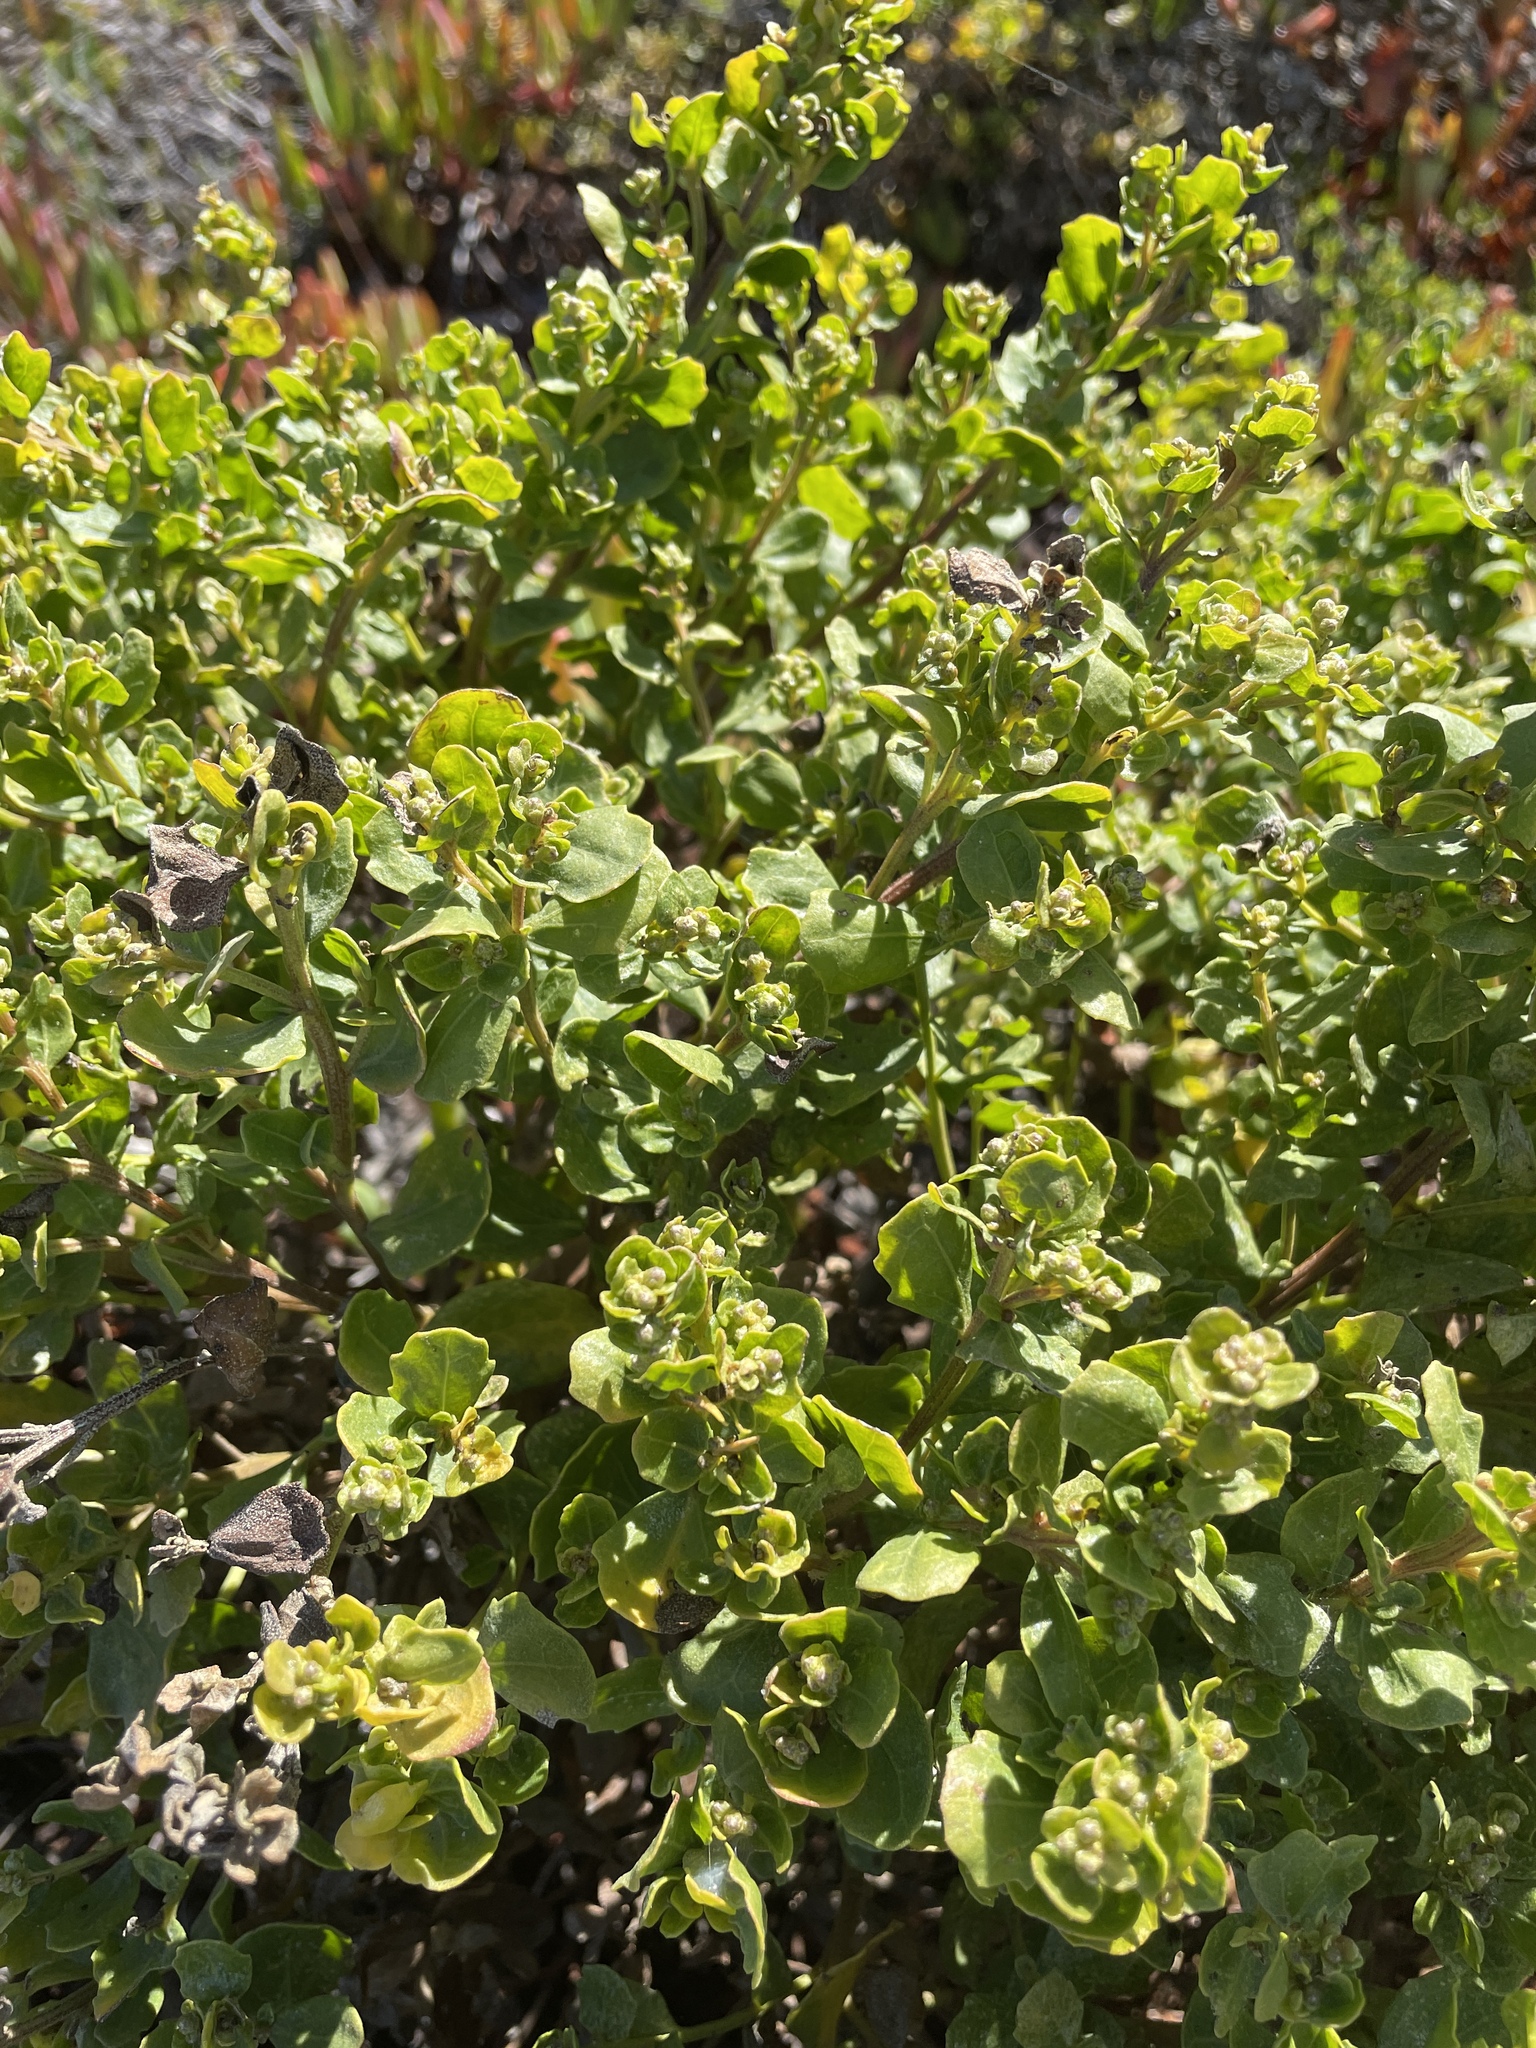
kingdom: Plantae
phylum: Tracheophyta
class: Magnoliopsida
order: Asterales
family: Asteraceae
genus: Baccharis
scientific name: Baccharis pilularis
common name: Coyotebrush
